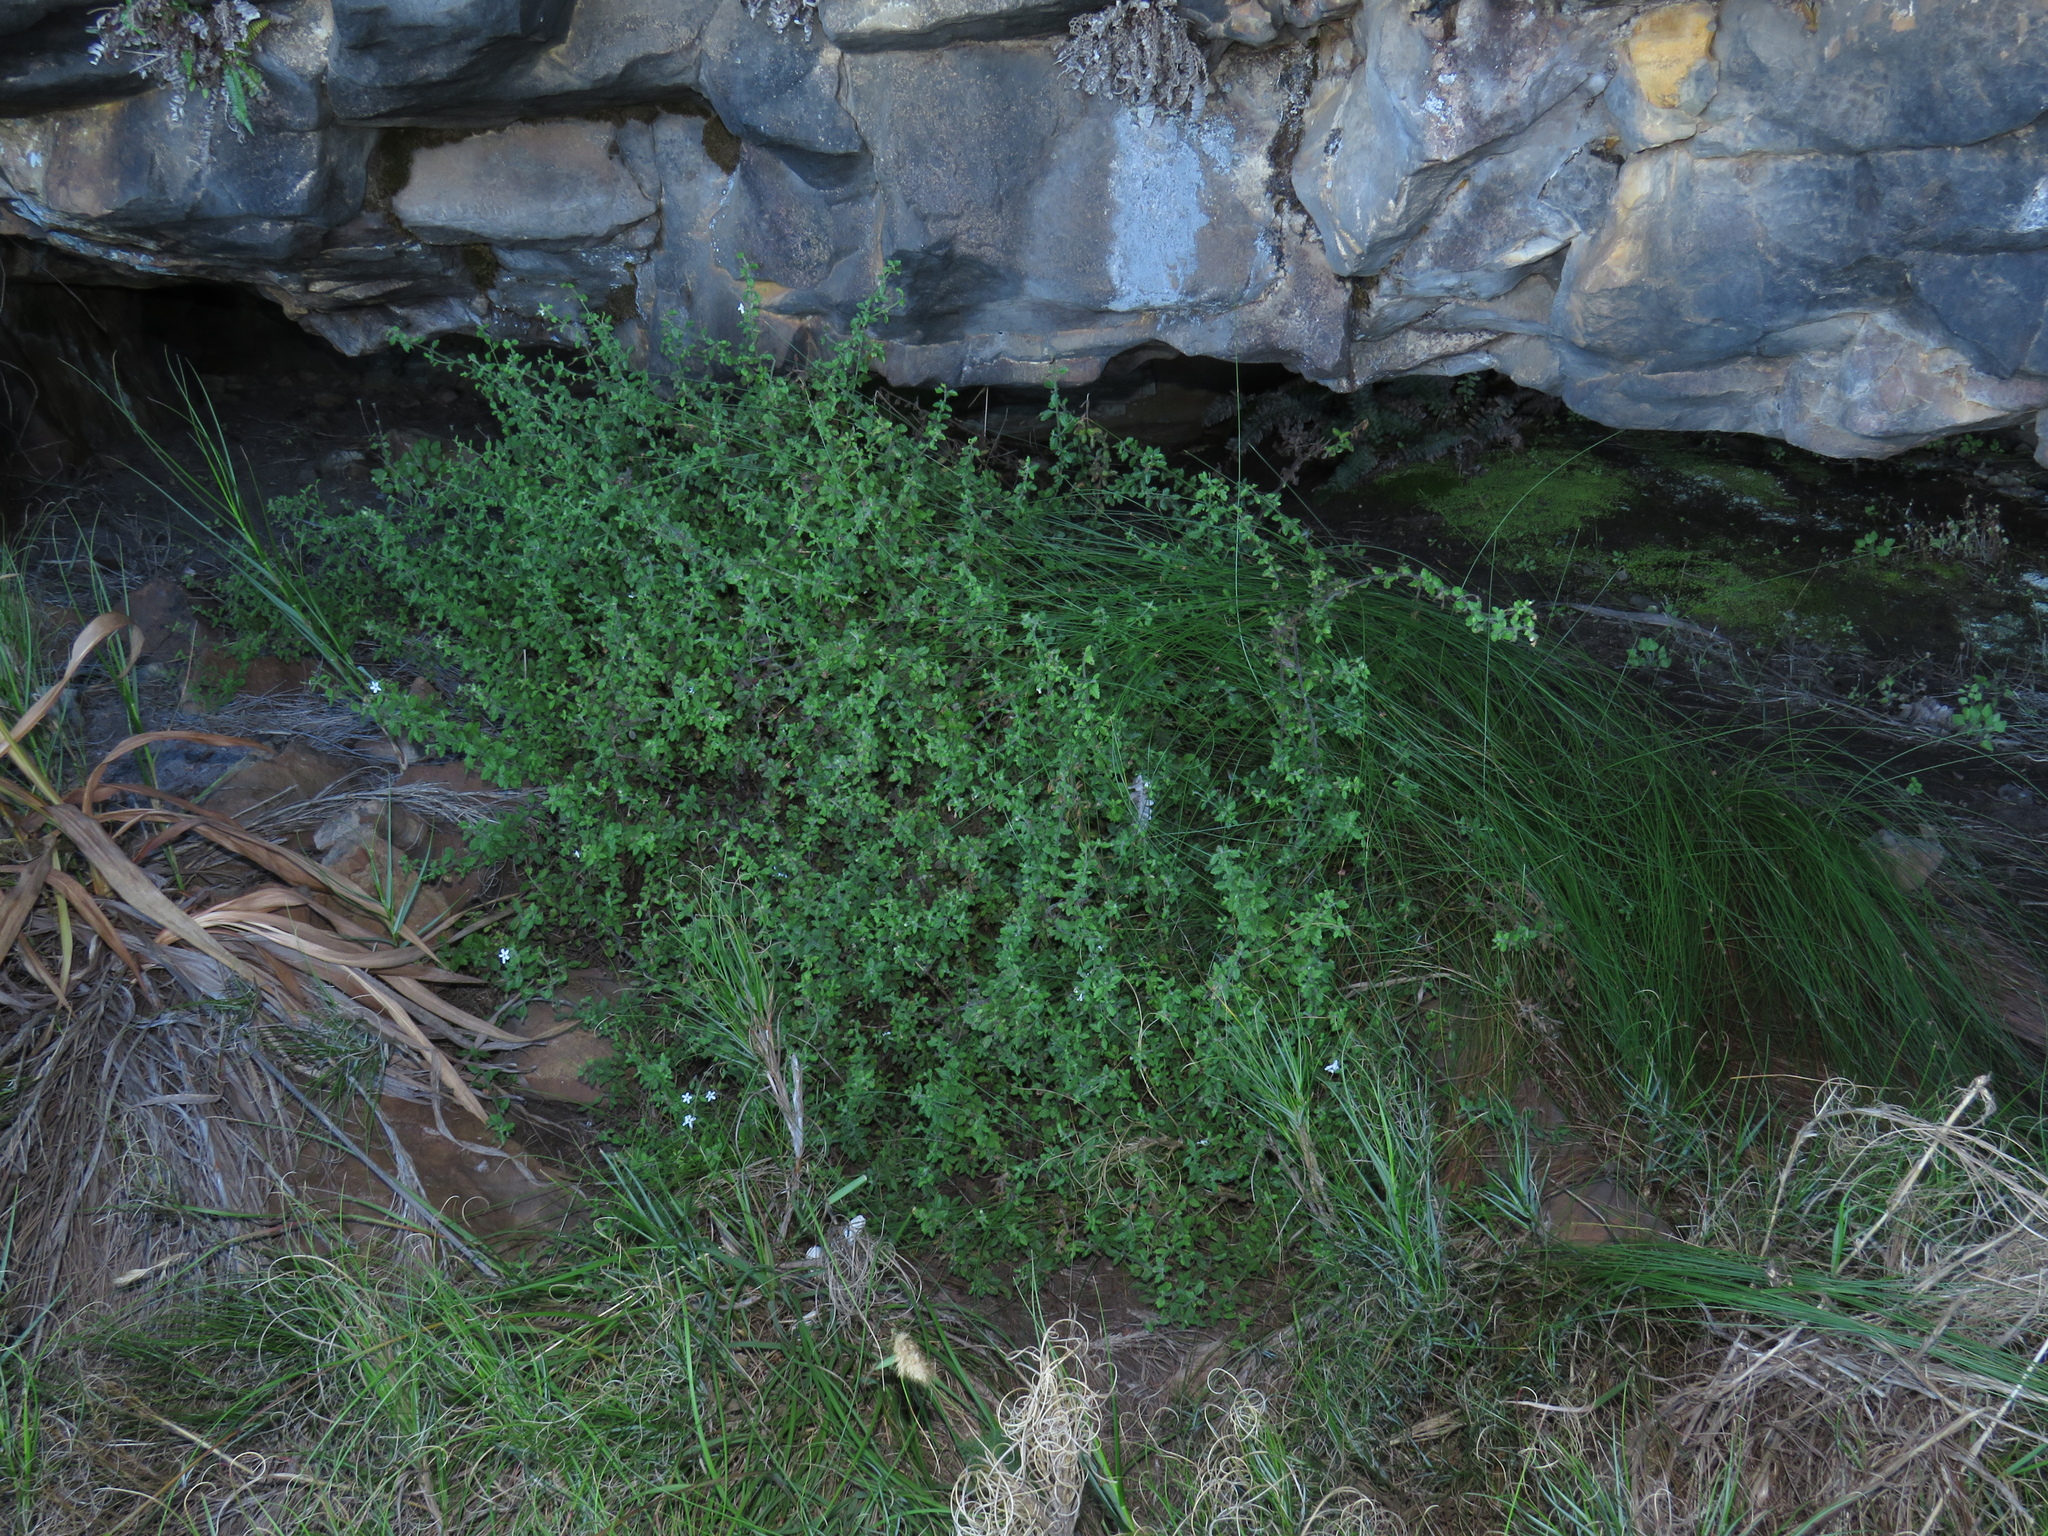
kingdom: Plantae
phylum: Tracheophyta
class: Magnoliopsida
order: Lamiales
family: Scrophulariaceae
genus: Chaenostoma
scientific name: Chaenostoma hispidum
